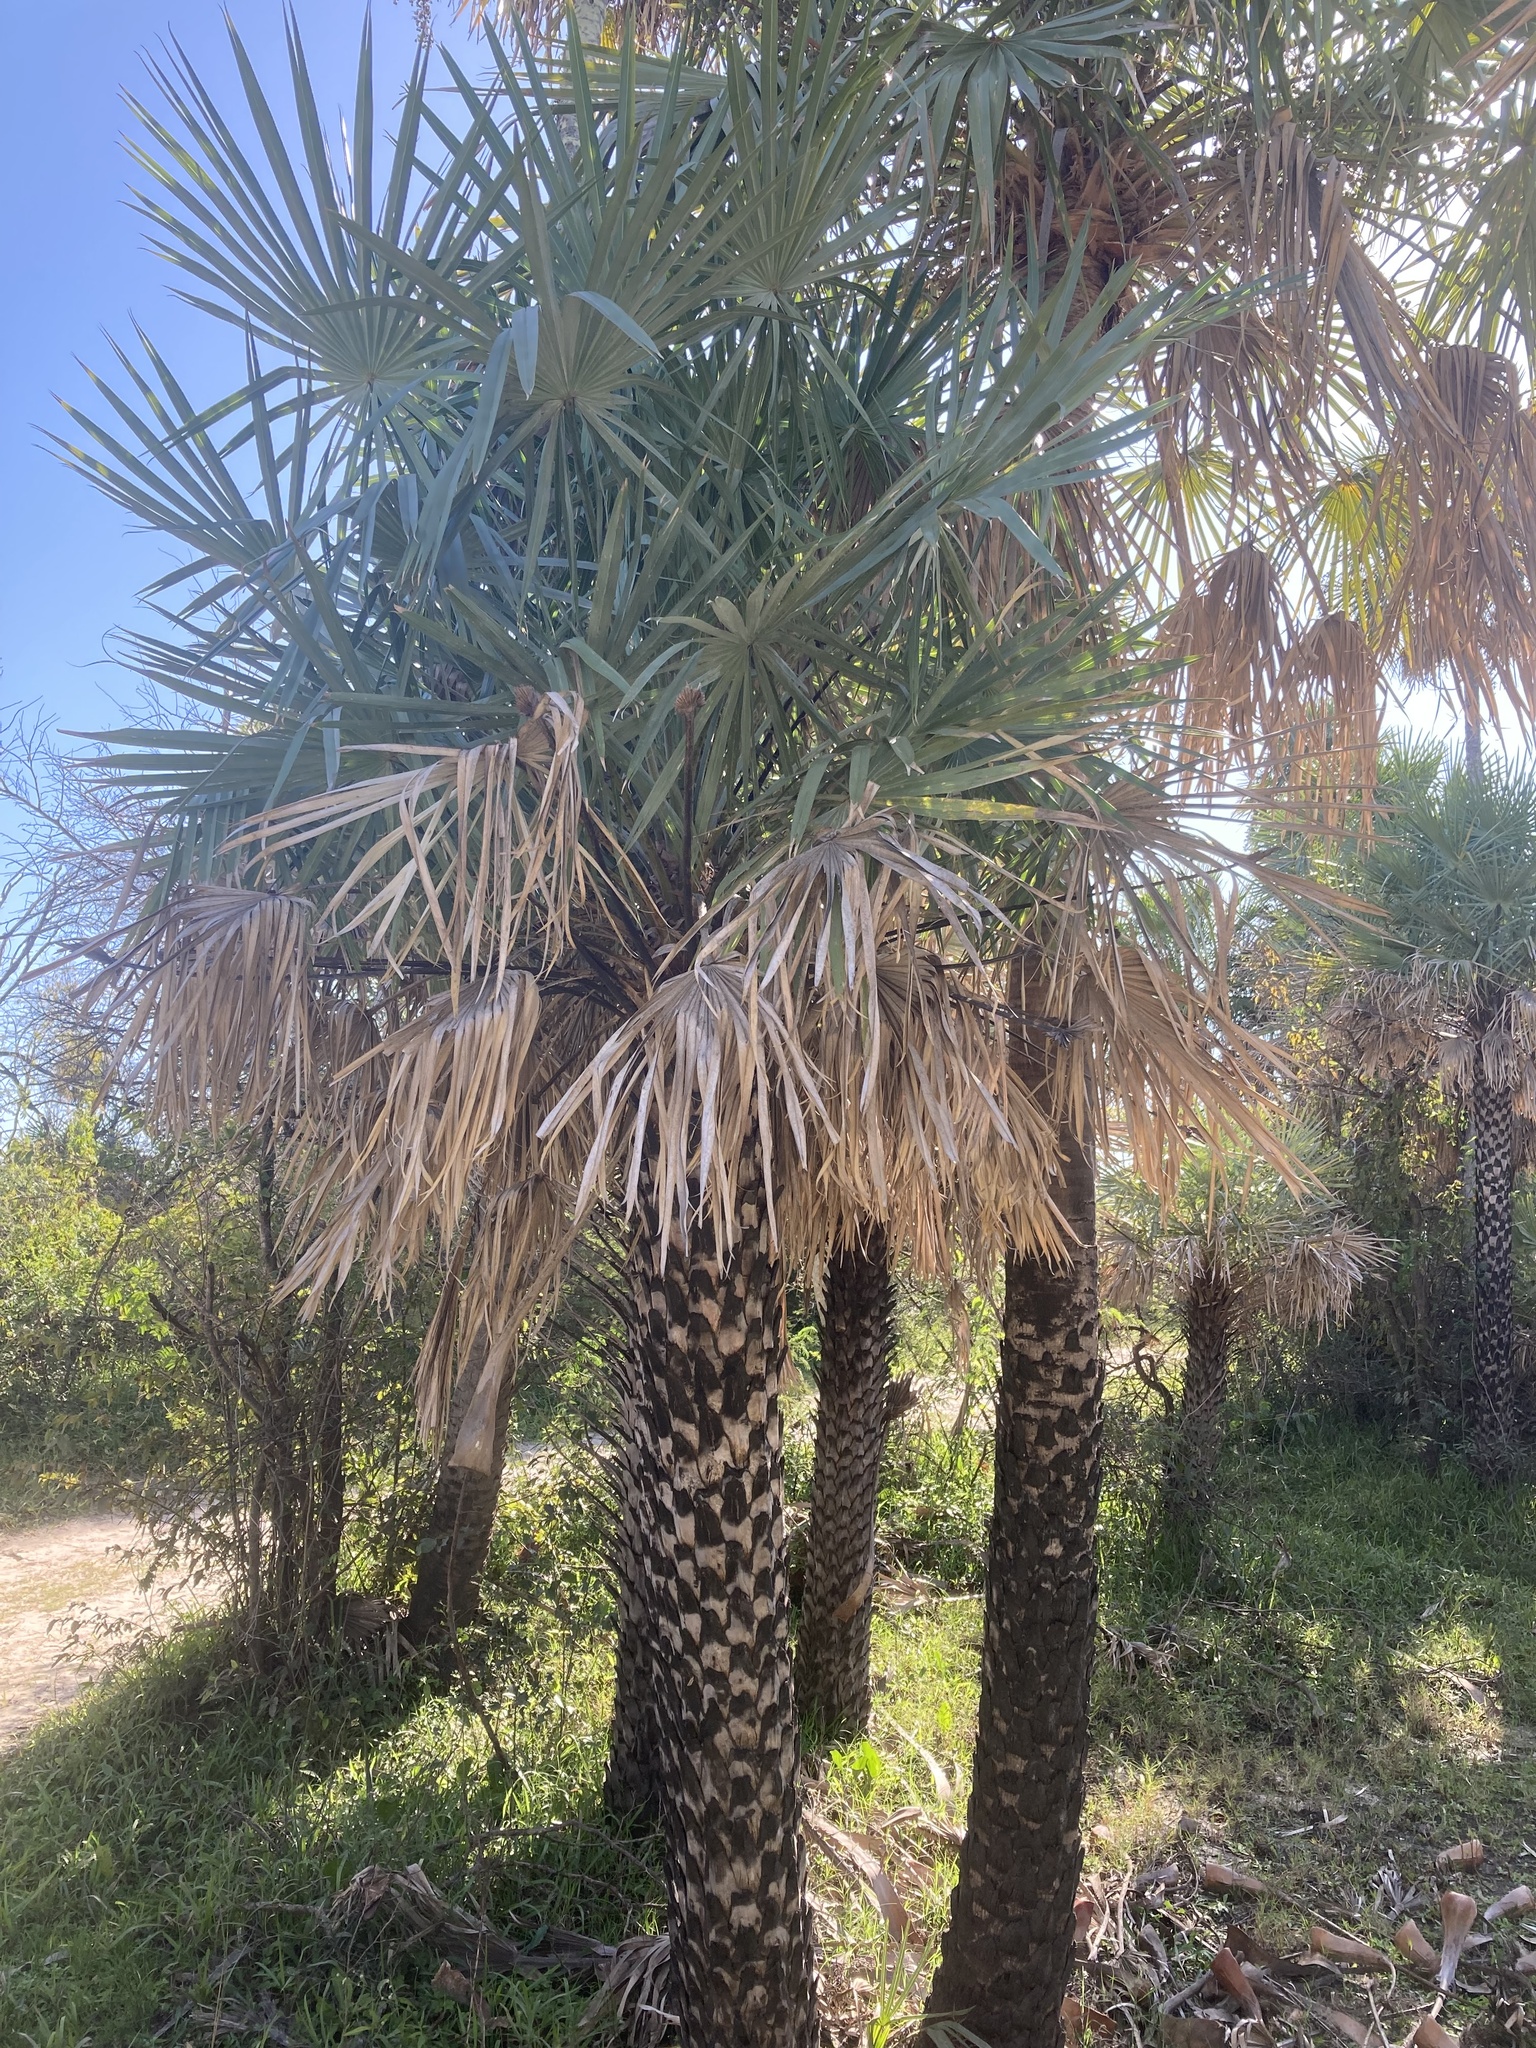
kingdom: Plantae
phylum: Tracheophyta
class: Liliopsida
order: Arecales
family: Arecaceae
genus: Copernicia
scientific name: Copernicia alba
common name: Caranday palm
